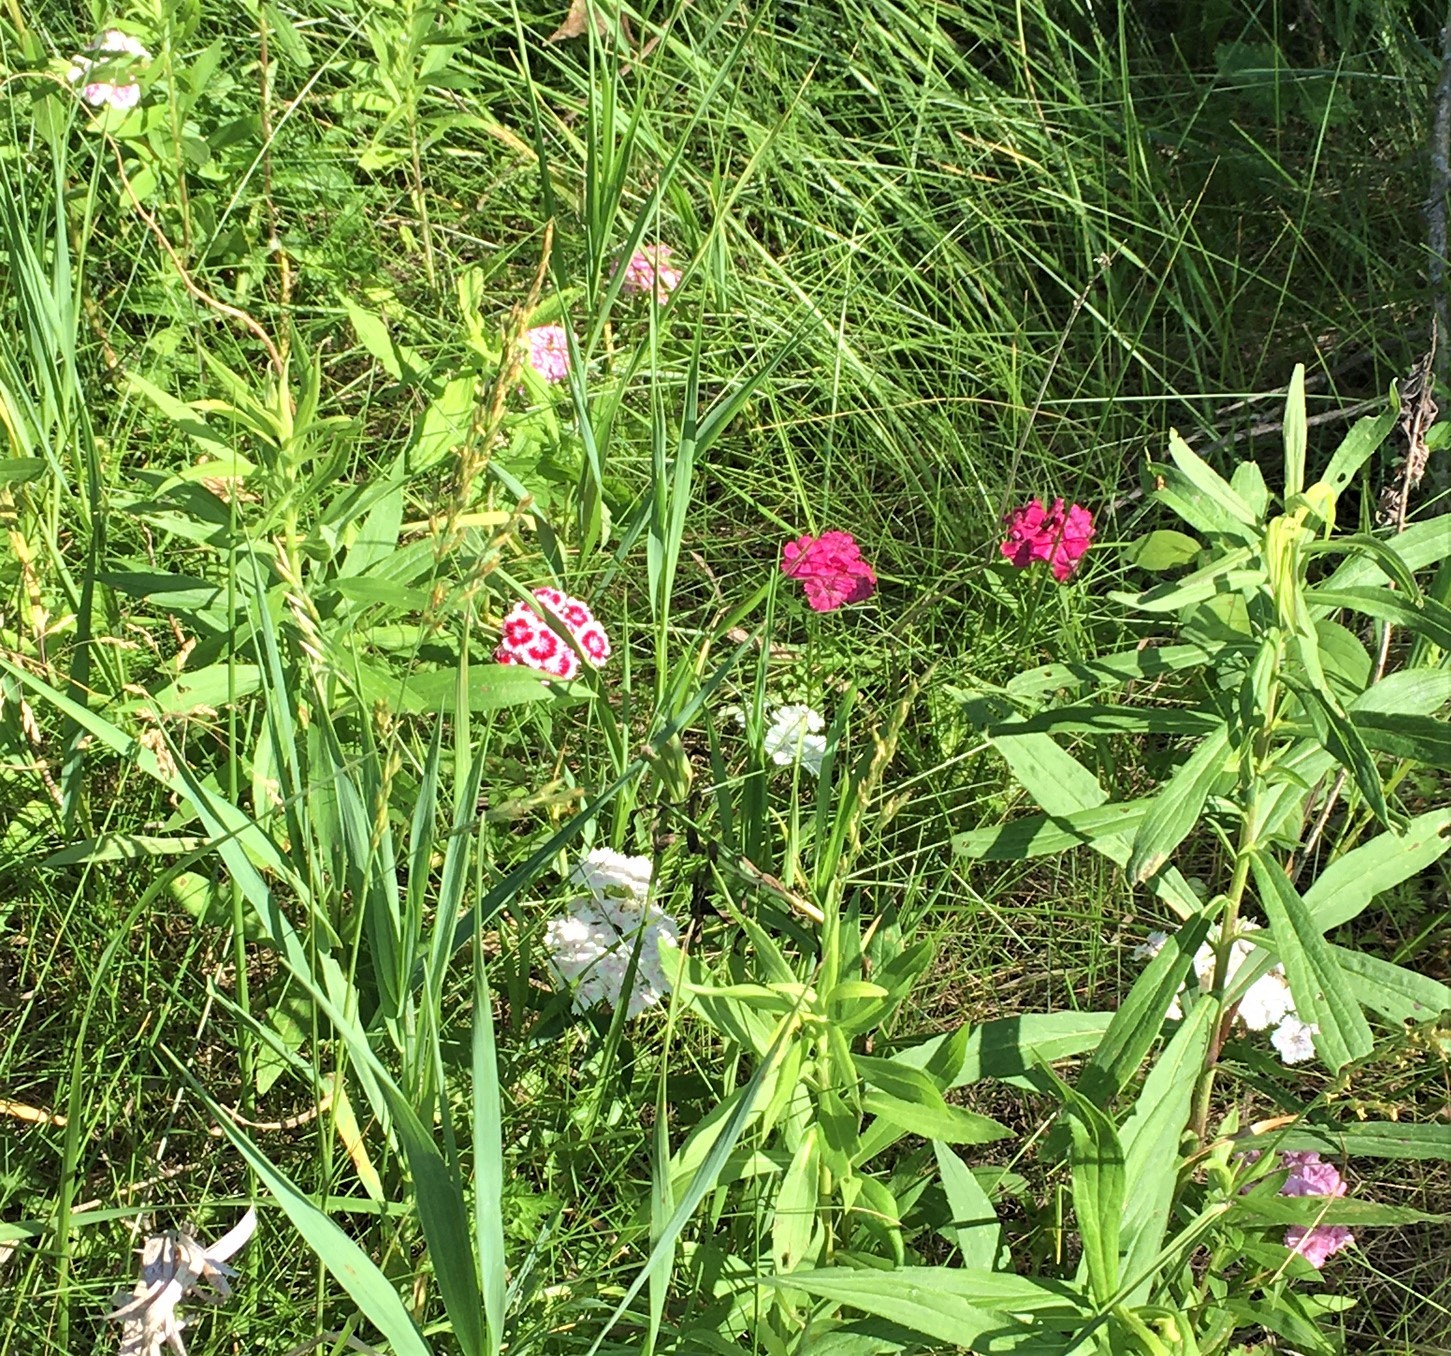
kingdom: Plantae
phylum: Tracheophyta
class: Magnoliopsida
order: Caryophyllales
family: Caryophyllaceae
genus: Dianthus
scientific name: Dianthus barbatus
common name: Sweet-william
